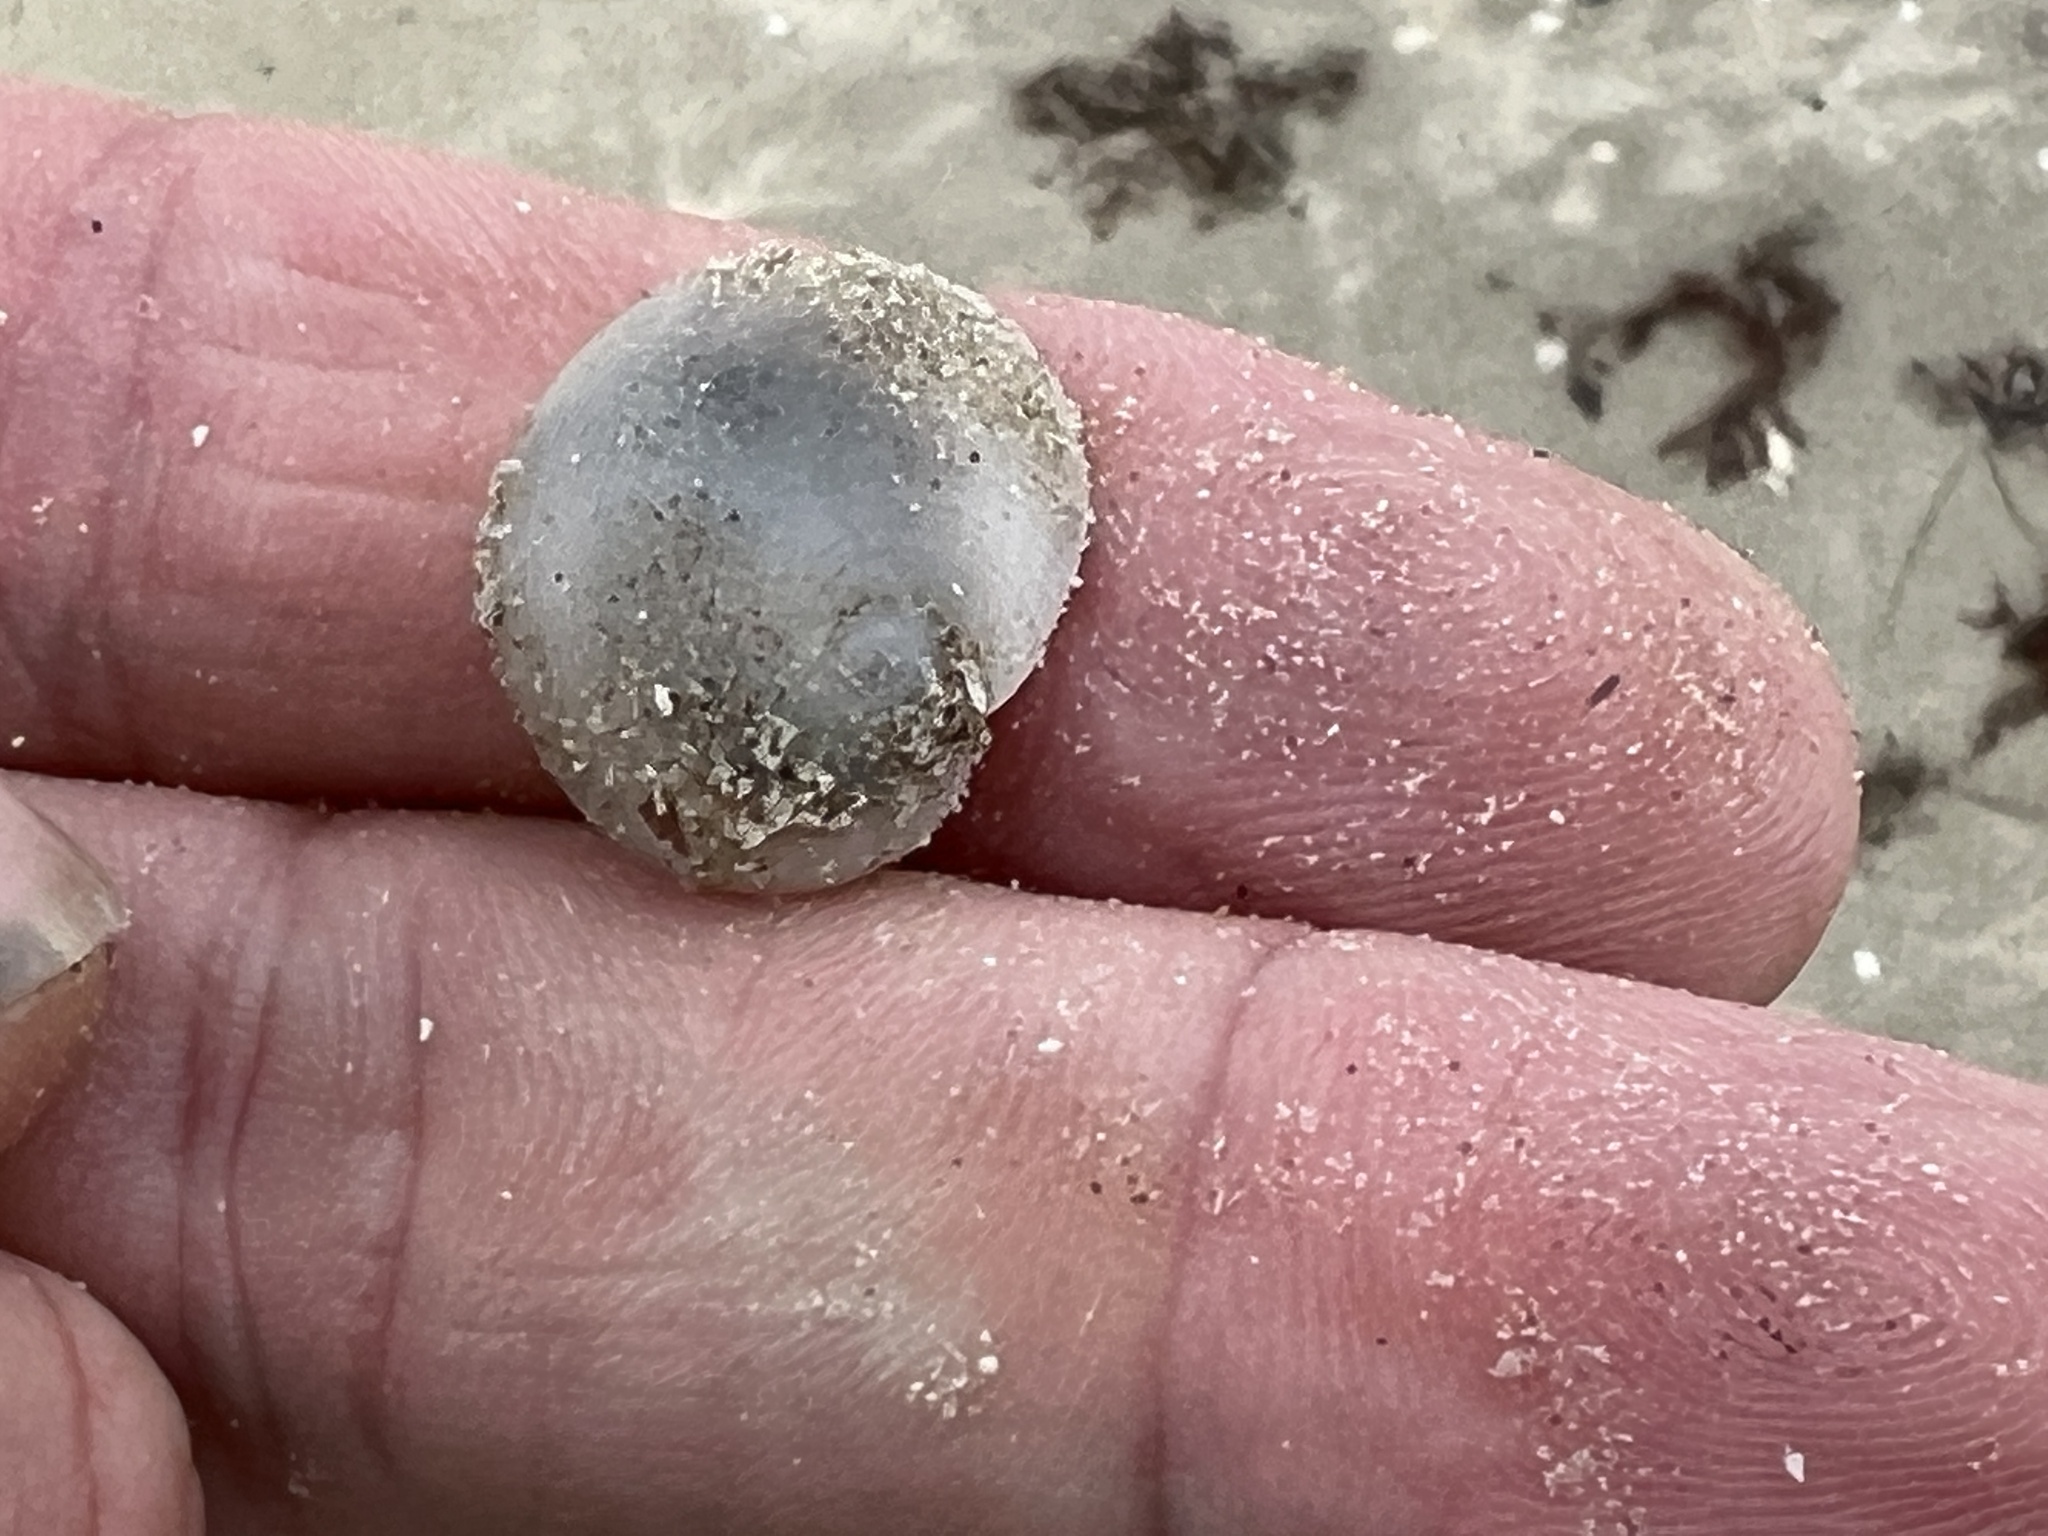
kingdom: Animalia
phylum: Mollusca
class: Gastropoda
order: Littorinimorpha
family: Naticidae
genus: Sinum
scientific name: Sinum perspectivum
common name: White baby ear
